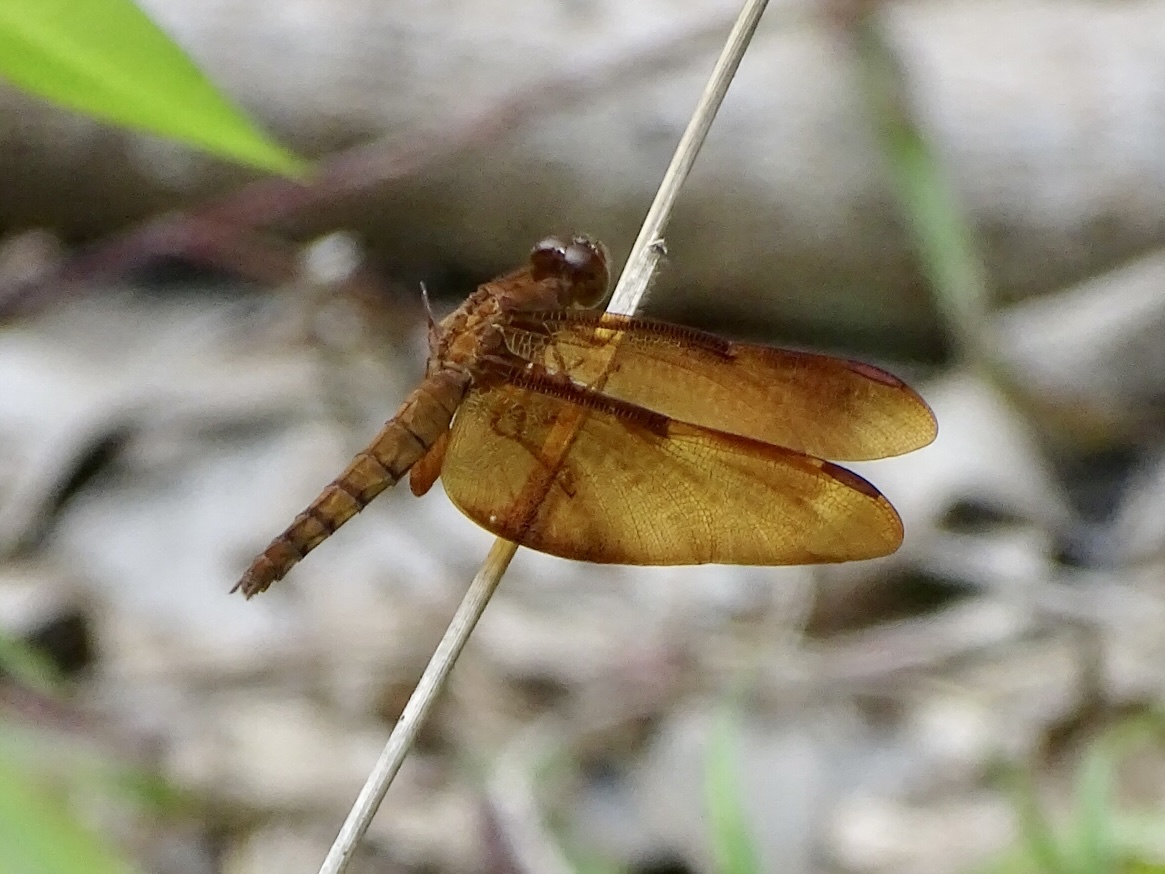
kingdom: Animalia
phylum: Arthropoda
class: Insecta
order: Odonata
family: Libellulidae
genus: Neurothemis
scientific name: Neurothemis fulvia
